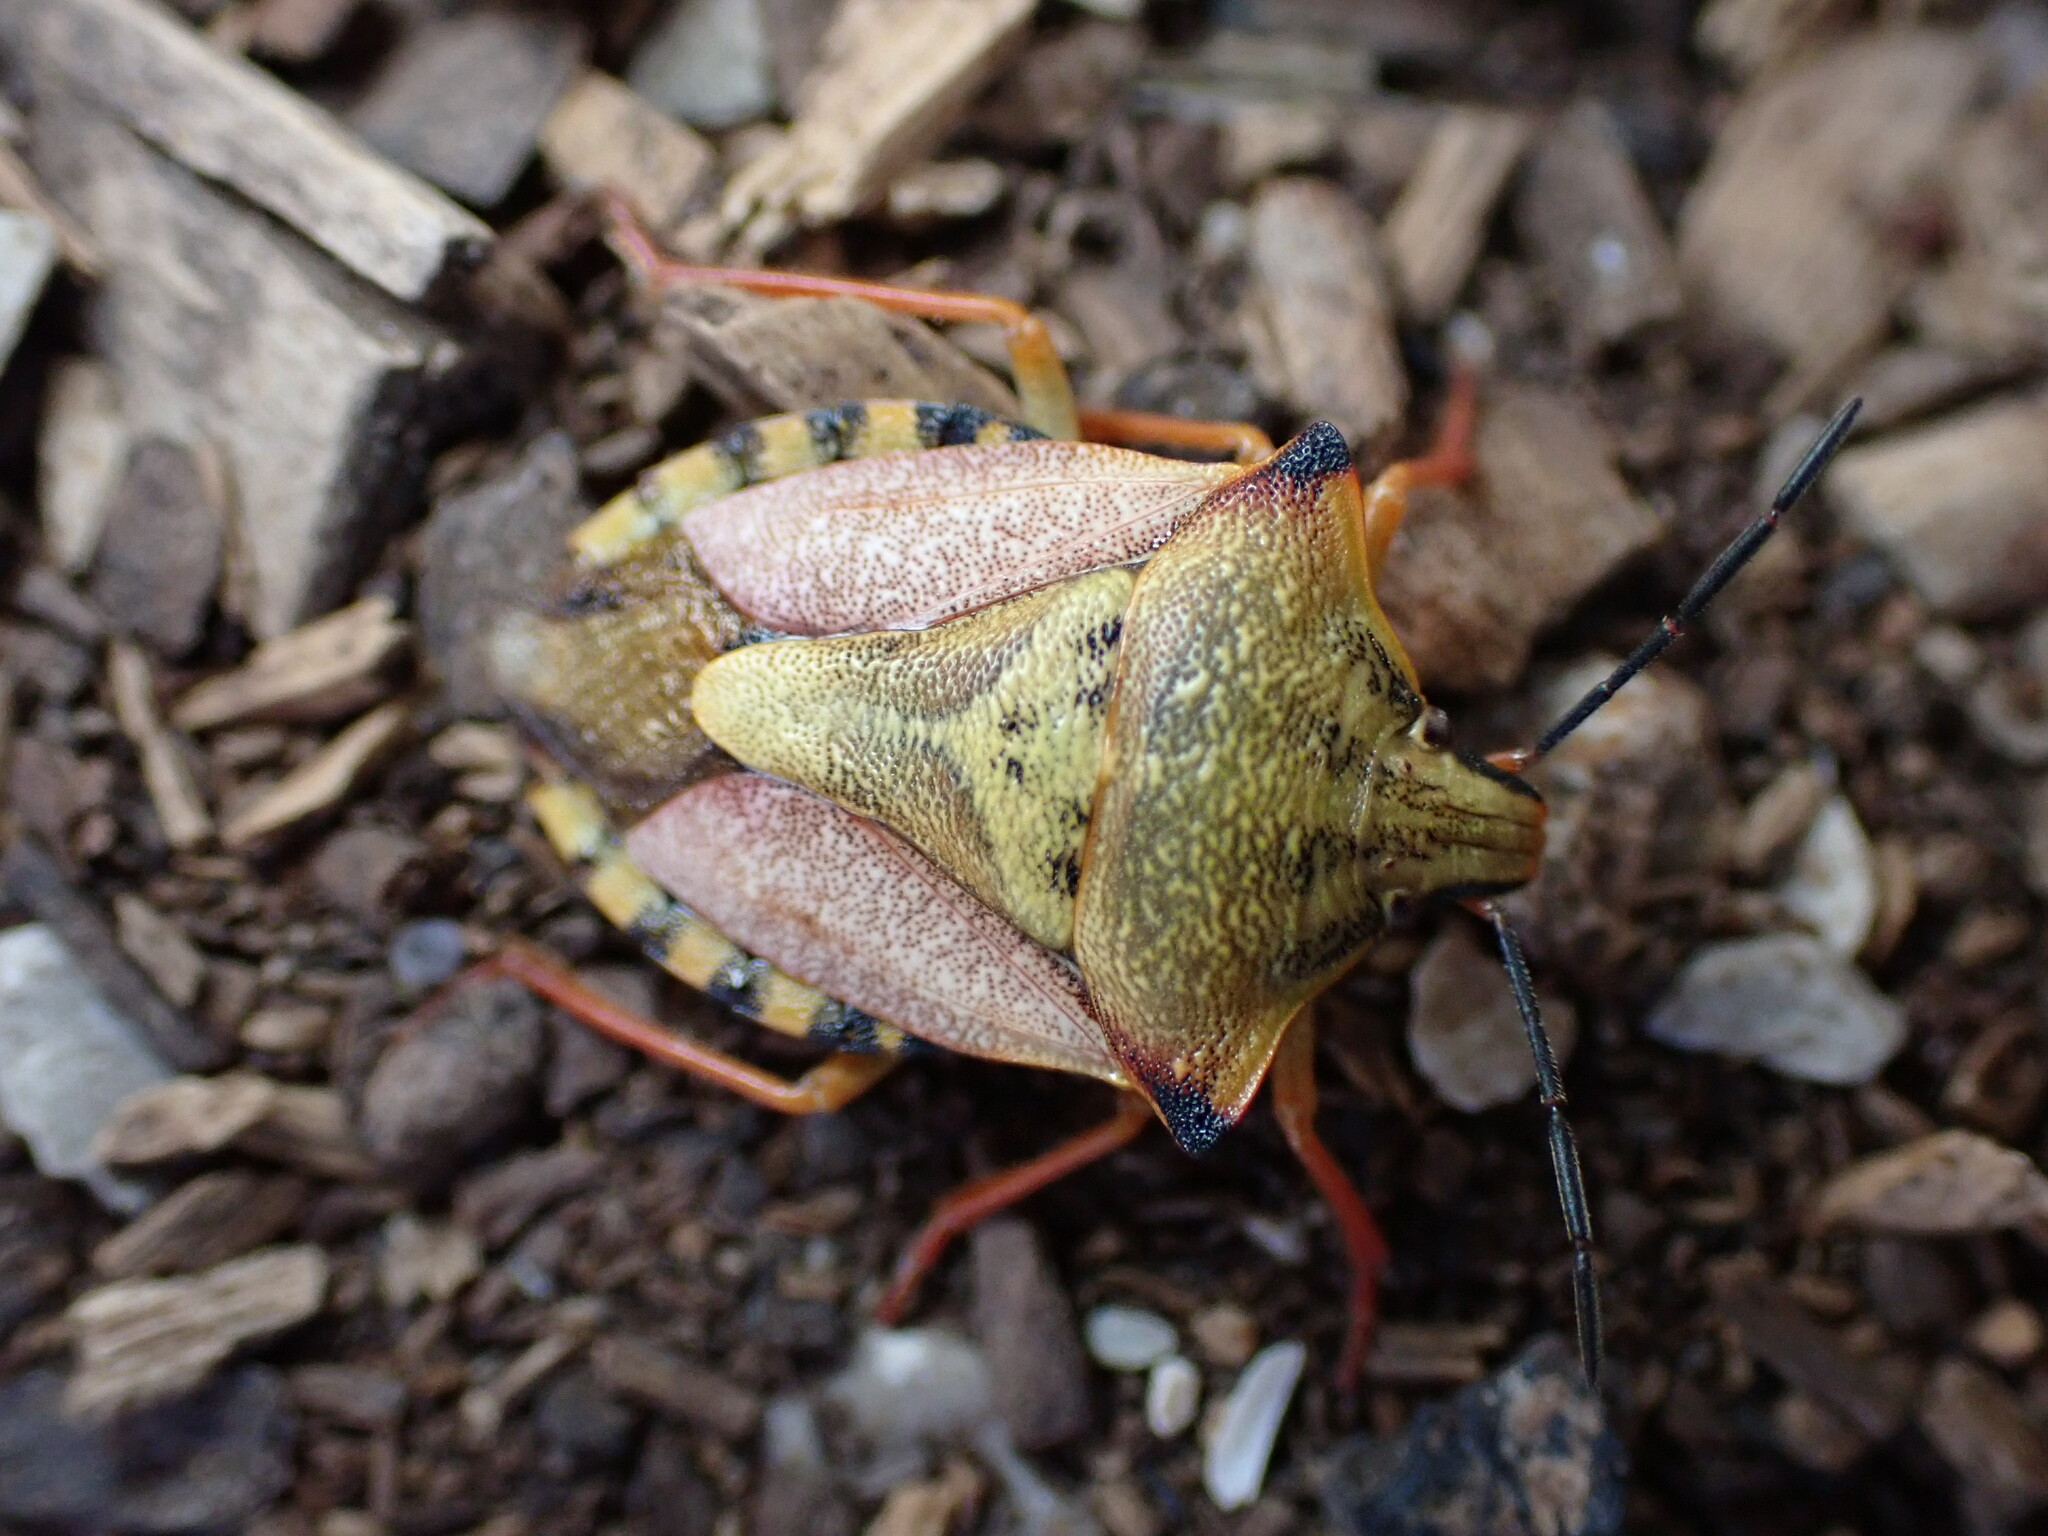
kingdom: Animalia
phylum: Arthropoda
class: Insecta
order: Hemiptera
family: Pentatomidae
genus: Carpocoris
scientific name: Carpocoris mediterraneus
